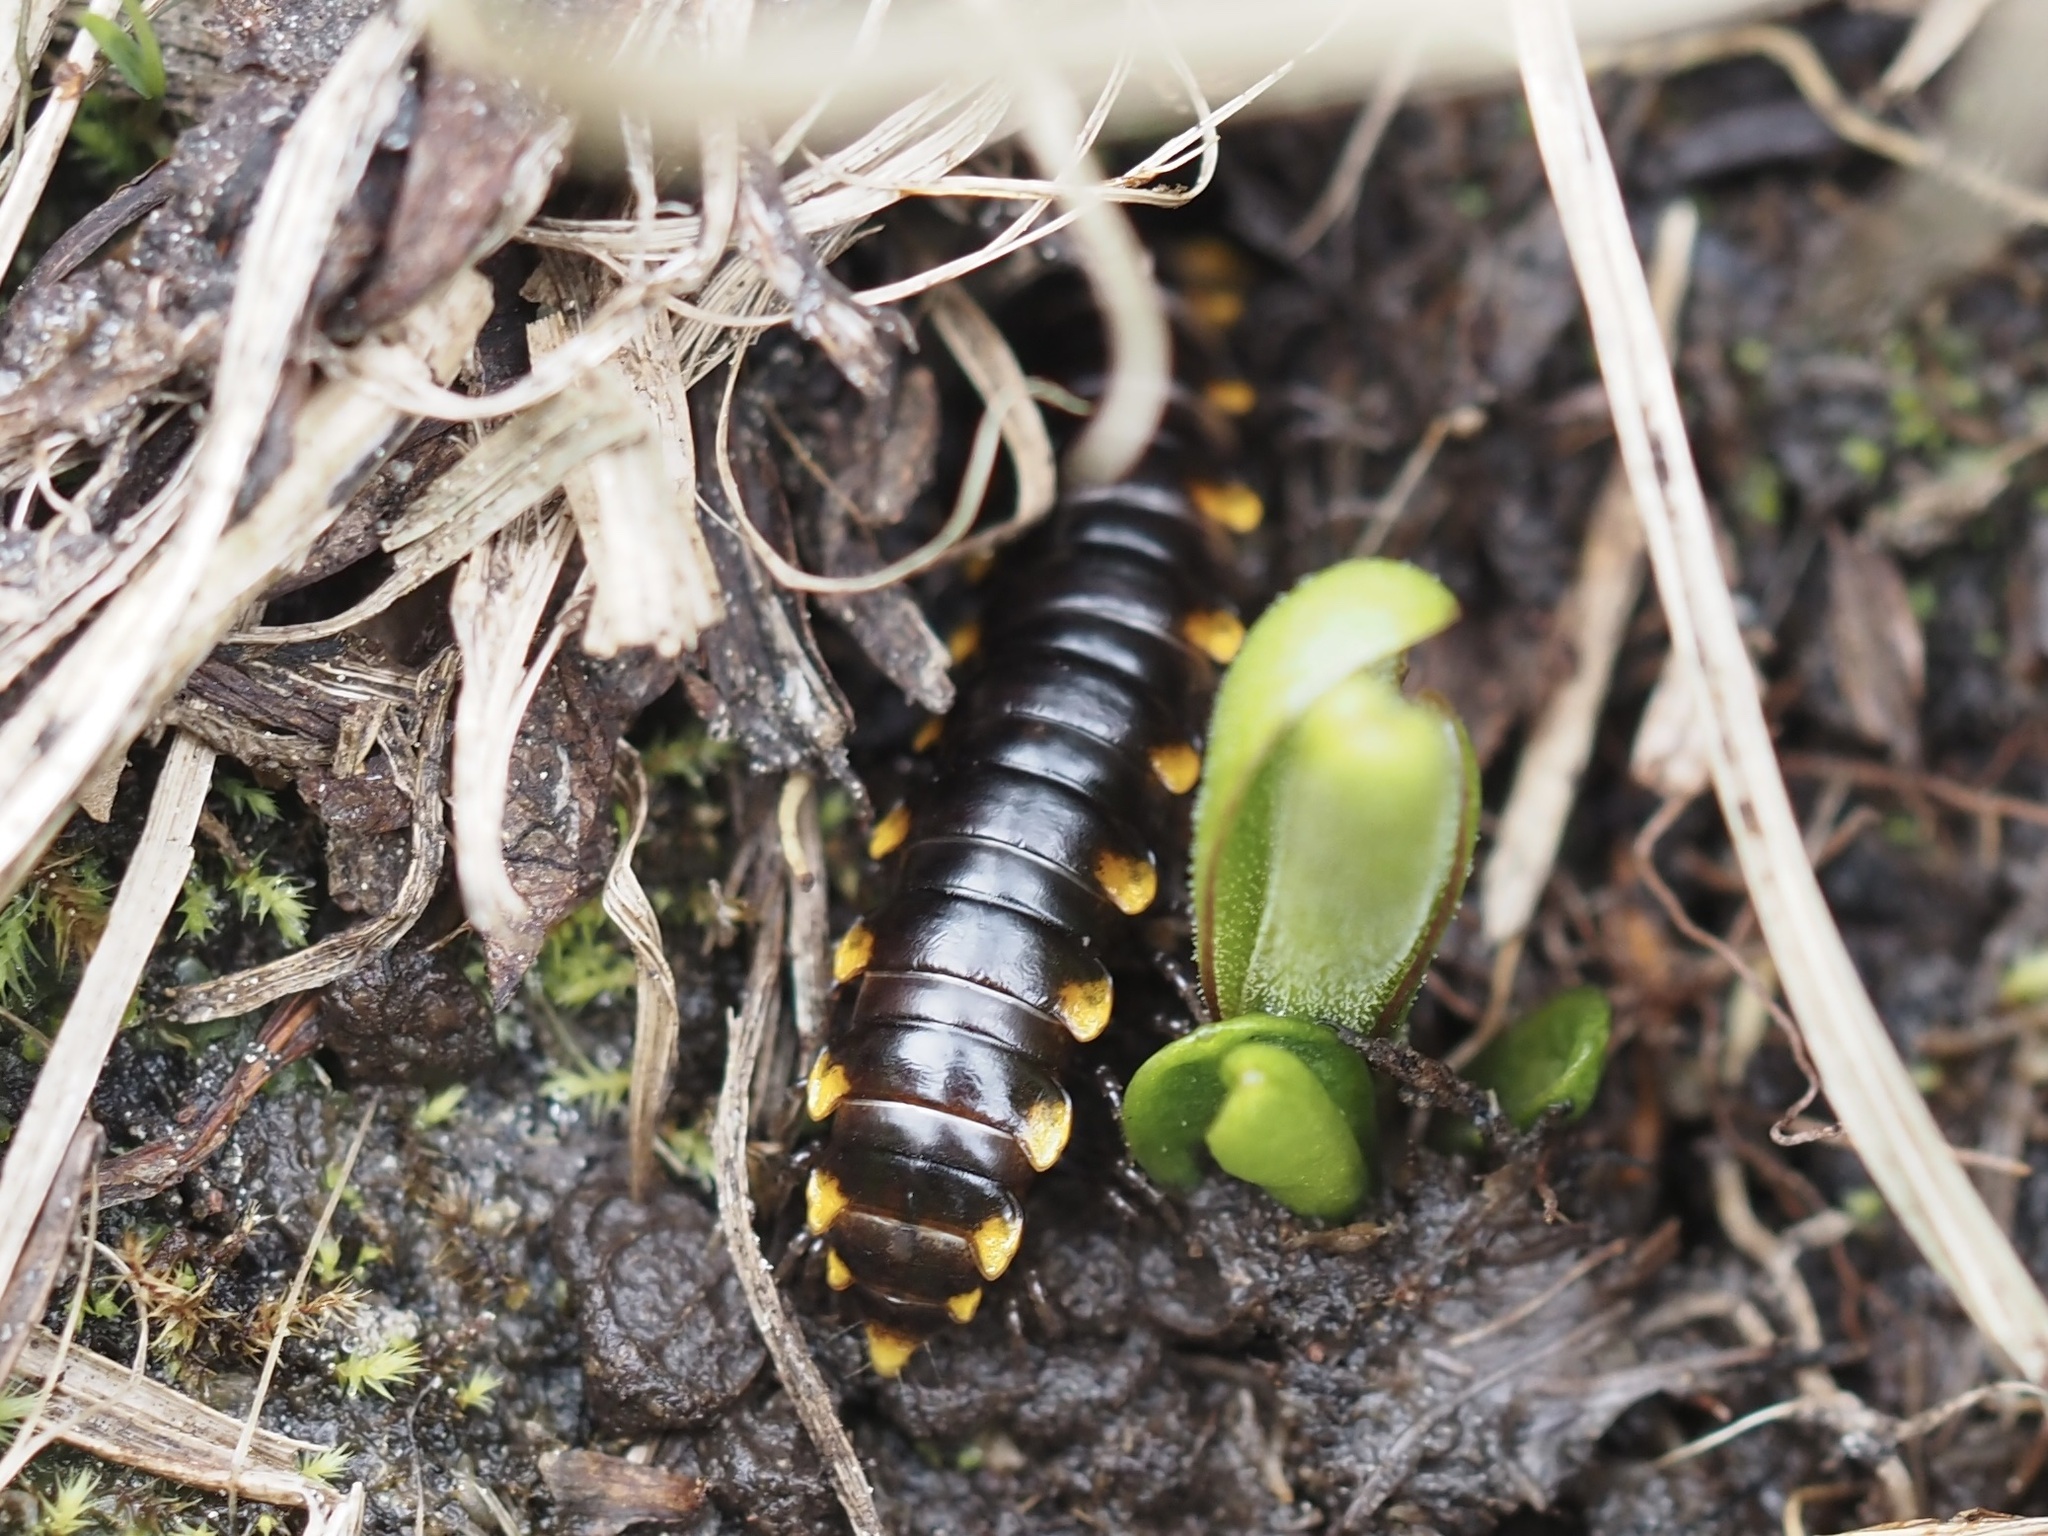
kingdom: Animalia
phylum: Arthropoda
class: Diplopoda
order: Polydesmida
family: Xystodesmidae
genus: Harpaphe
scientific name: Harpaphe haydeniana
